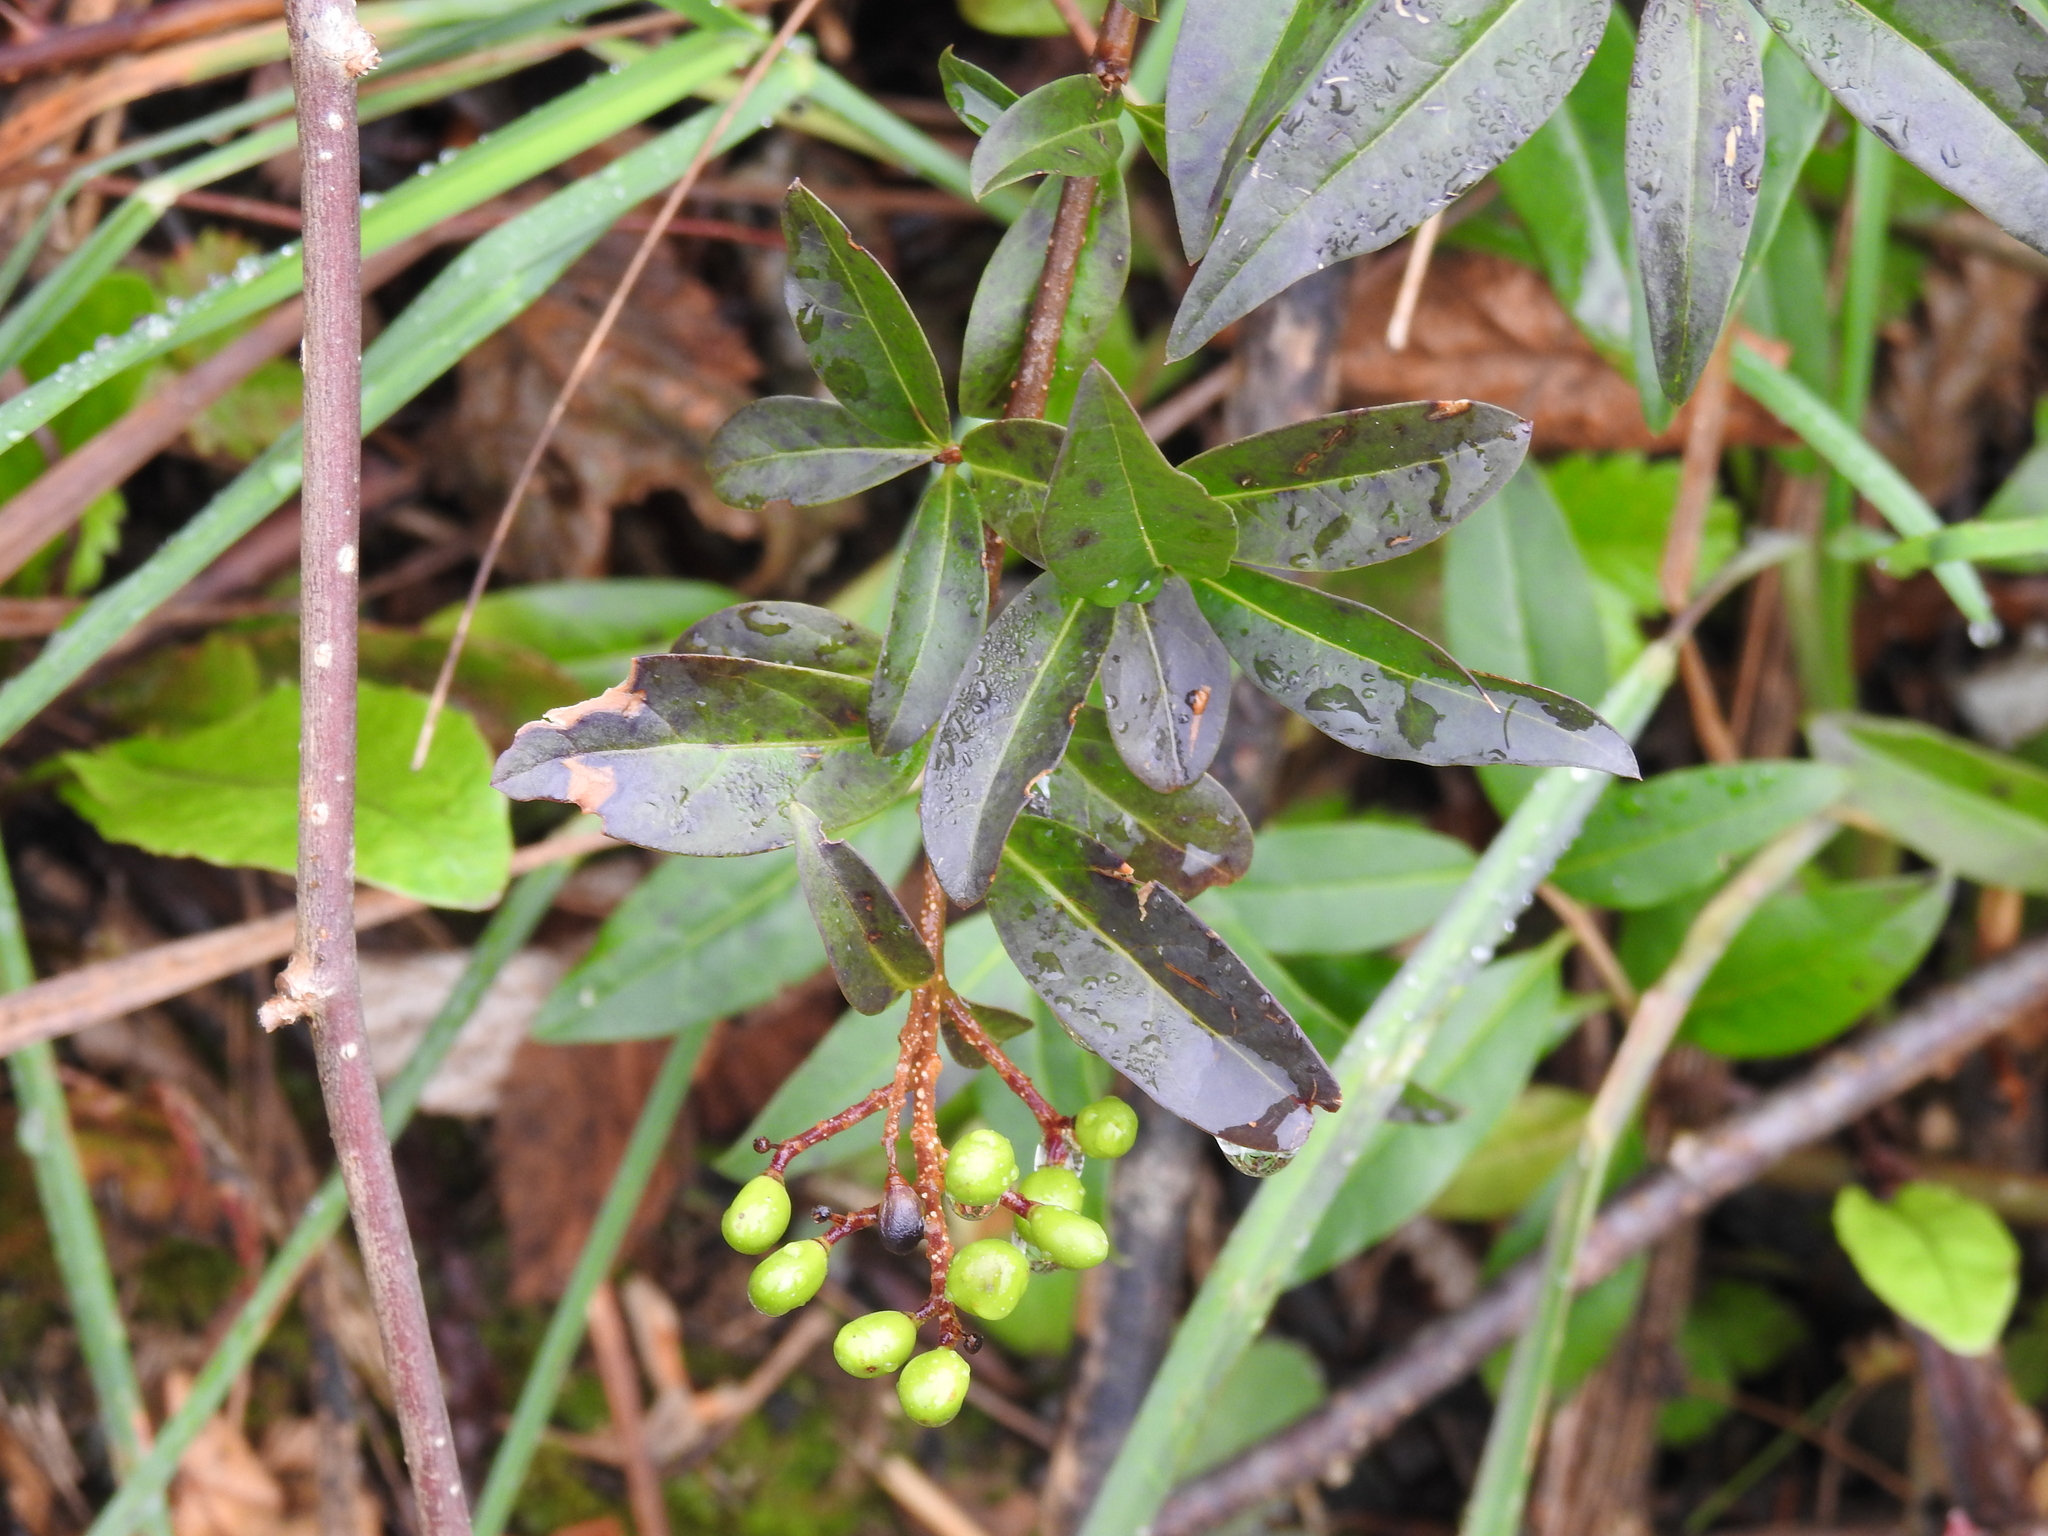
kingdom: Plantae
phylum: Tracheophyta
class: Magnoliopsida
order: Lamiales
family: Oleaceae
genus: Ligustrum
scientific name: Ligustrum vulgare
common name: Wild privet
